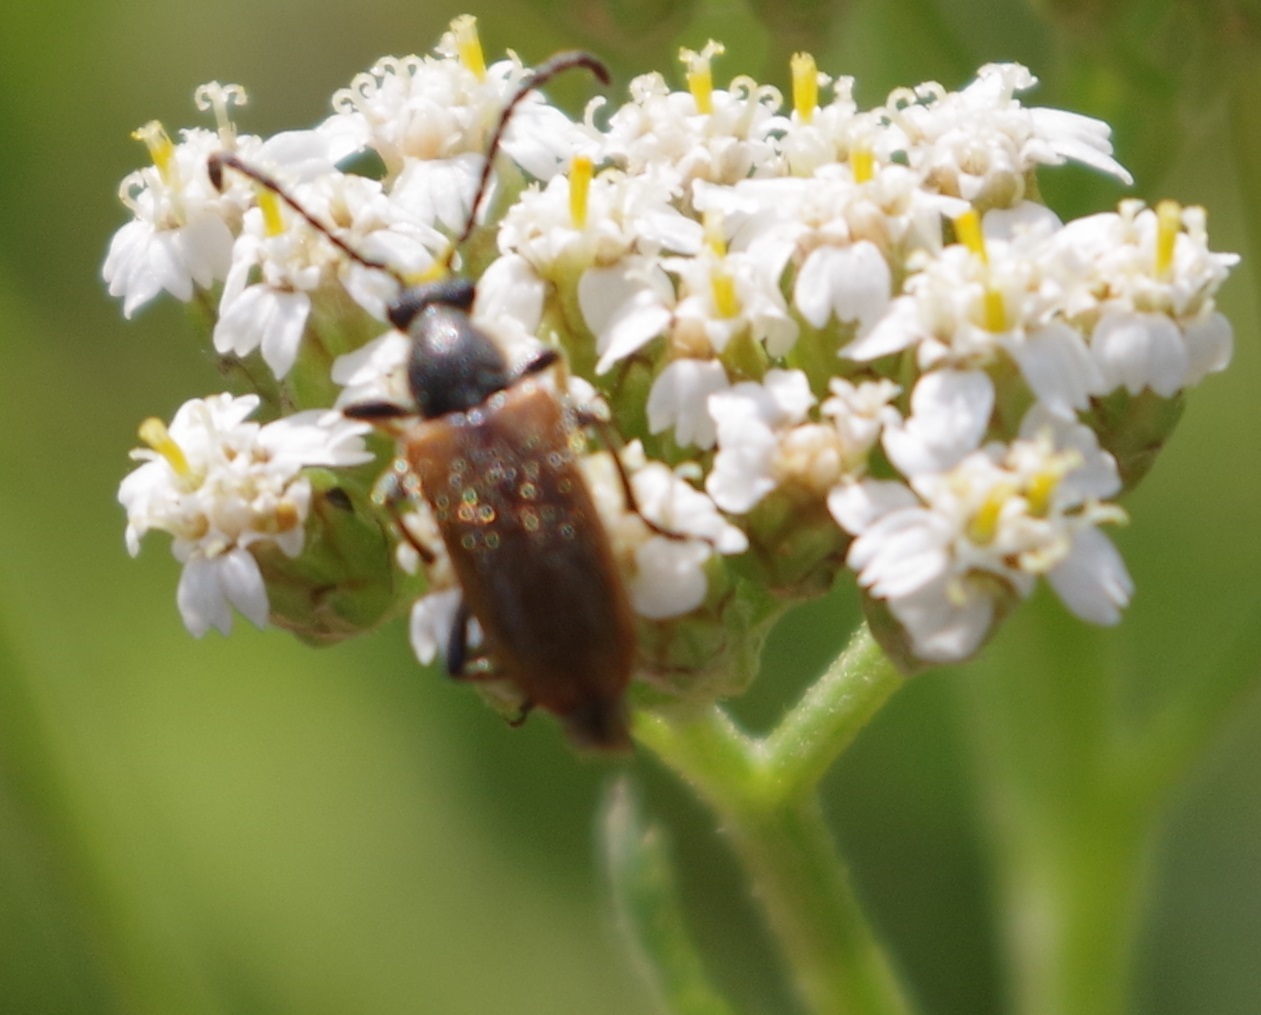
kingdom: Animalia
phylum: Arthropoda
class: Insecta
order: Coleoptera
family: Cerambycidae
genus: Pseudovadonia
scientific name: Pseudovadonia livida
